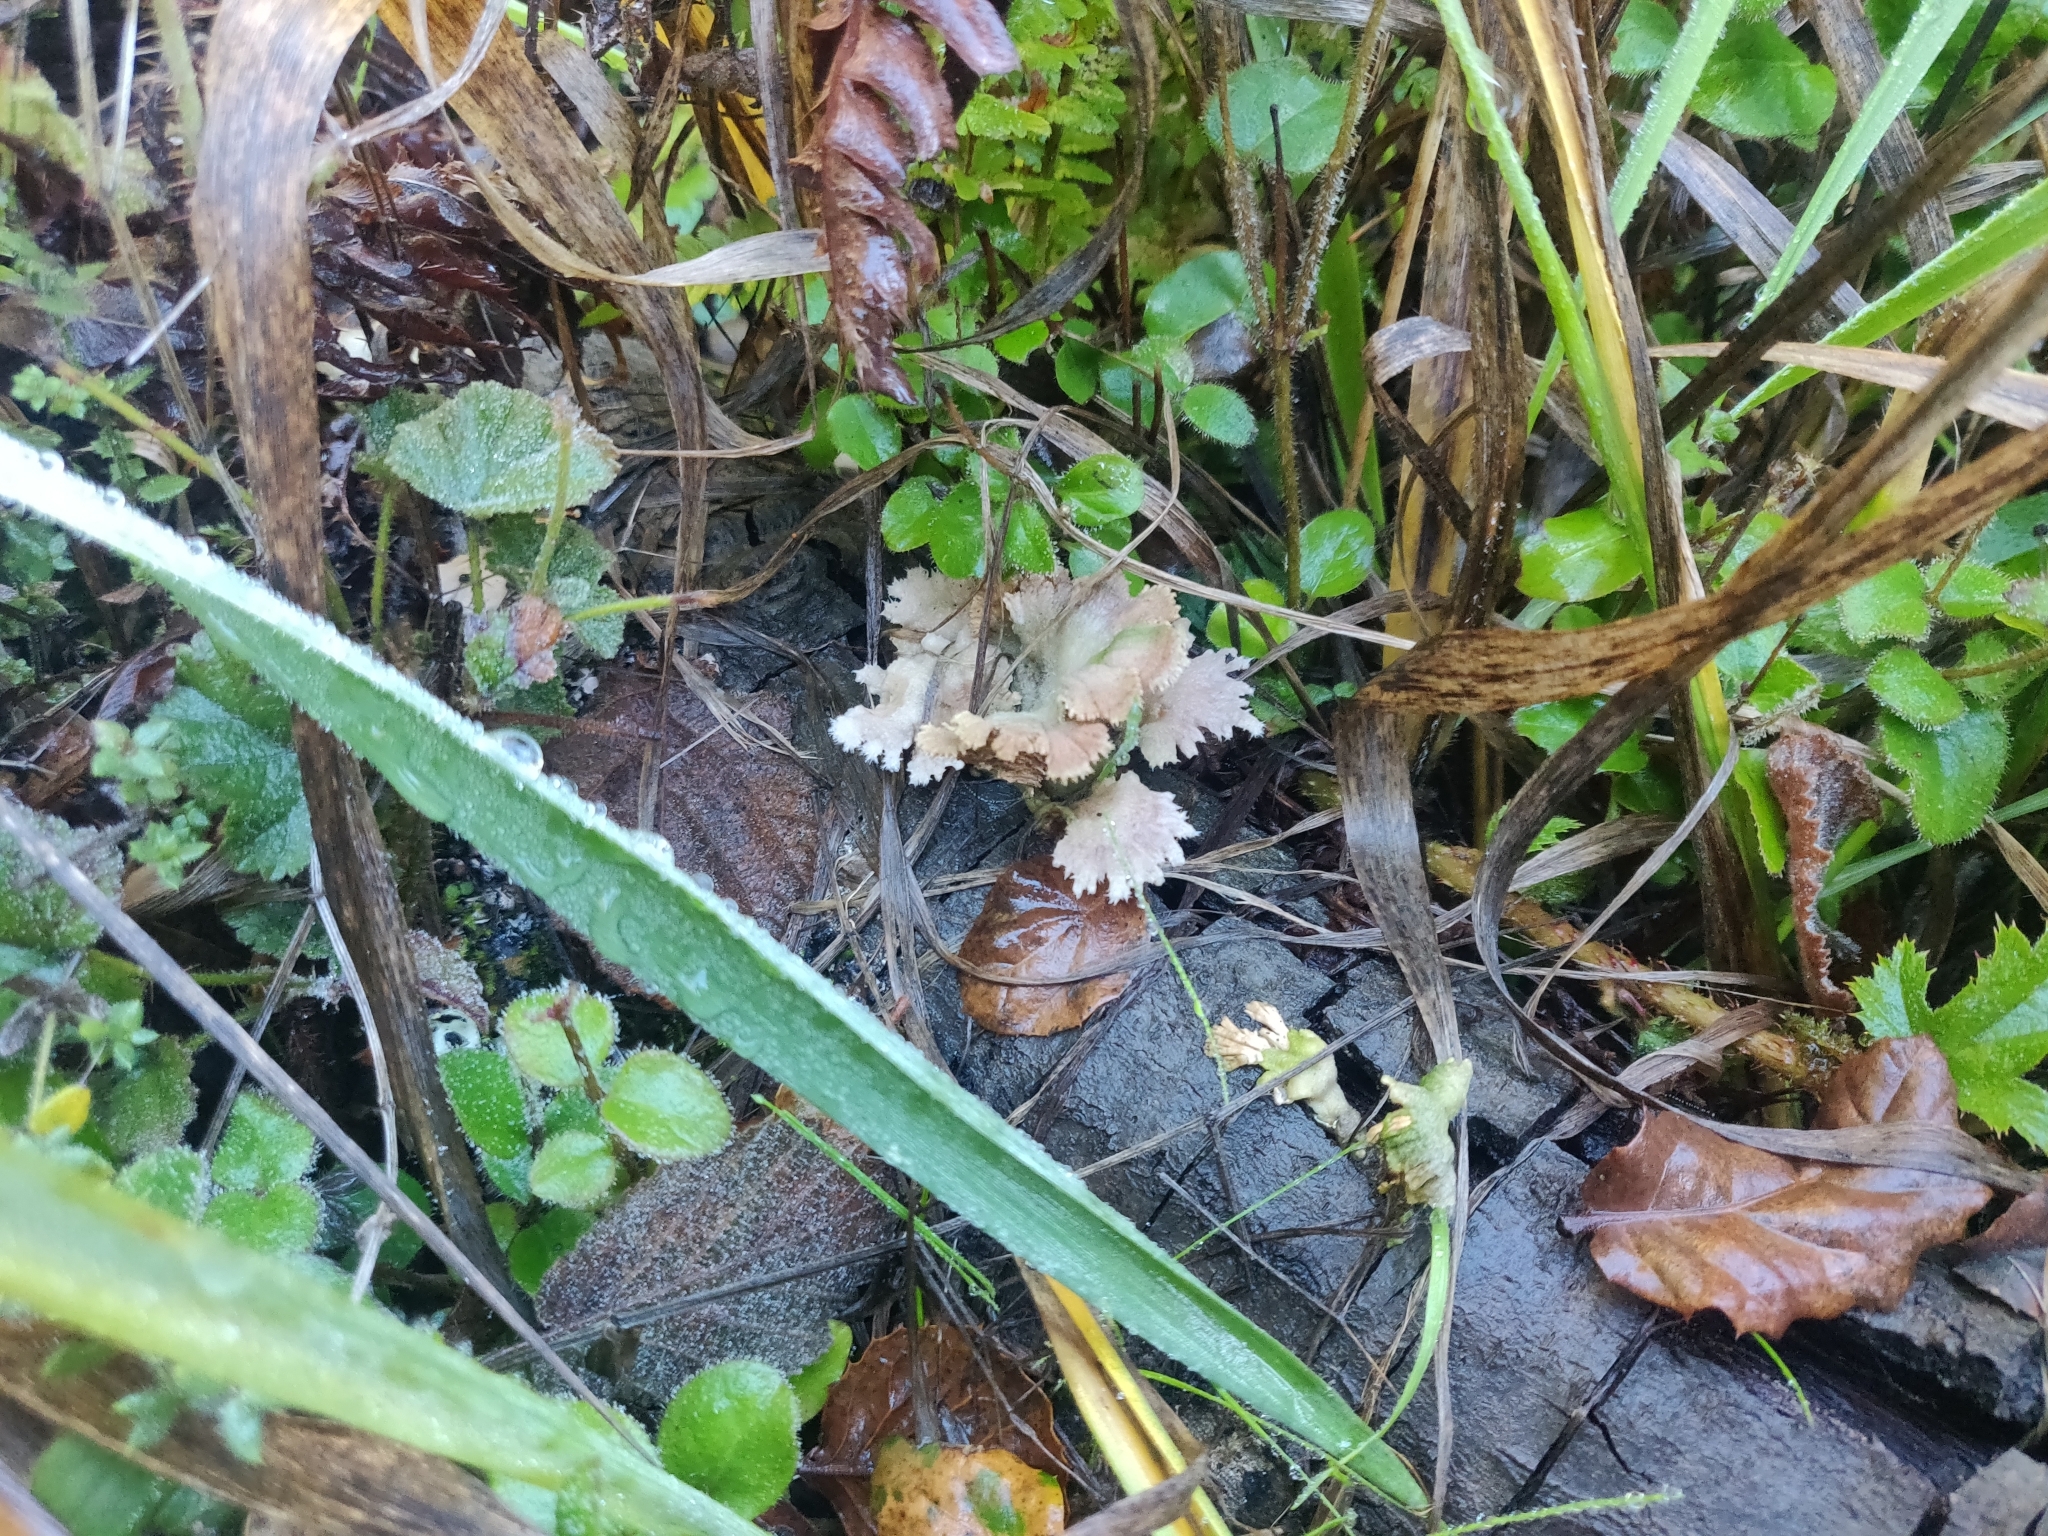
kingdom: Fungi
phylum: Basidiomycota
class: Agaricomycetes
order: Agaricales
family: Schizophyllaceae
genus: Schizophyllum
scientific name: Schizophyllum commune
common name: Common porecrust
